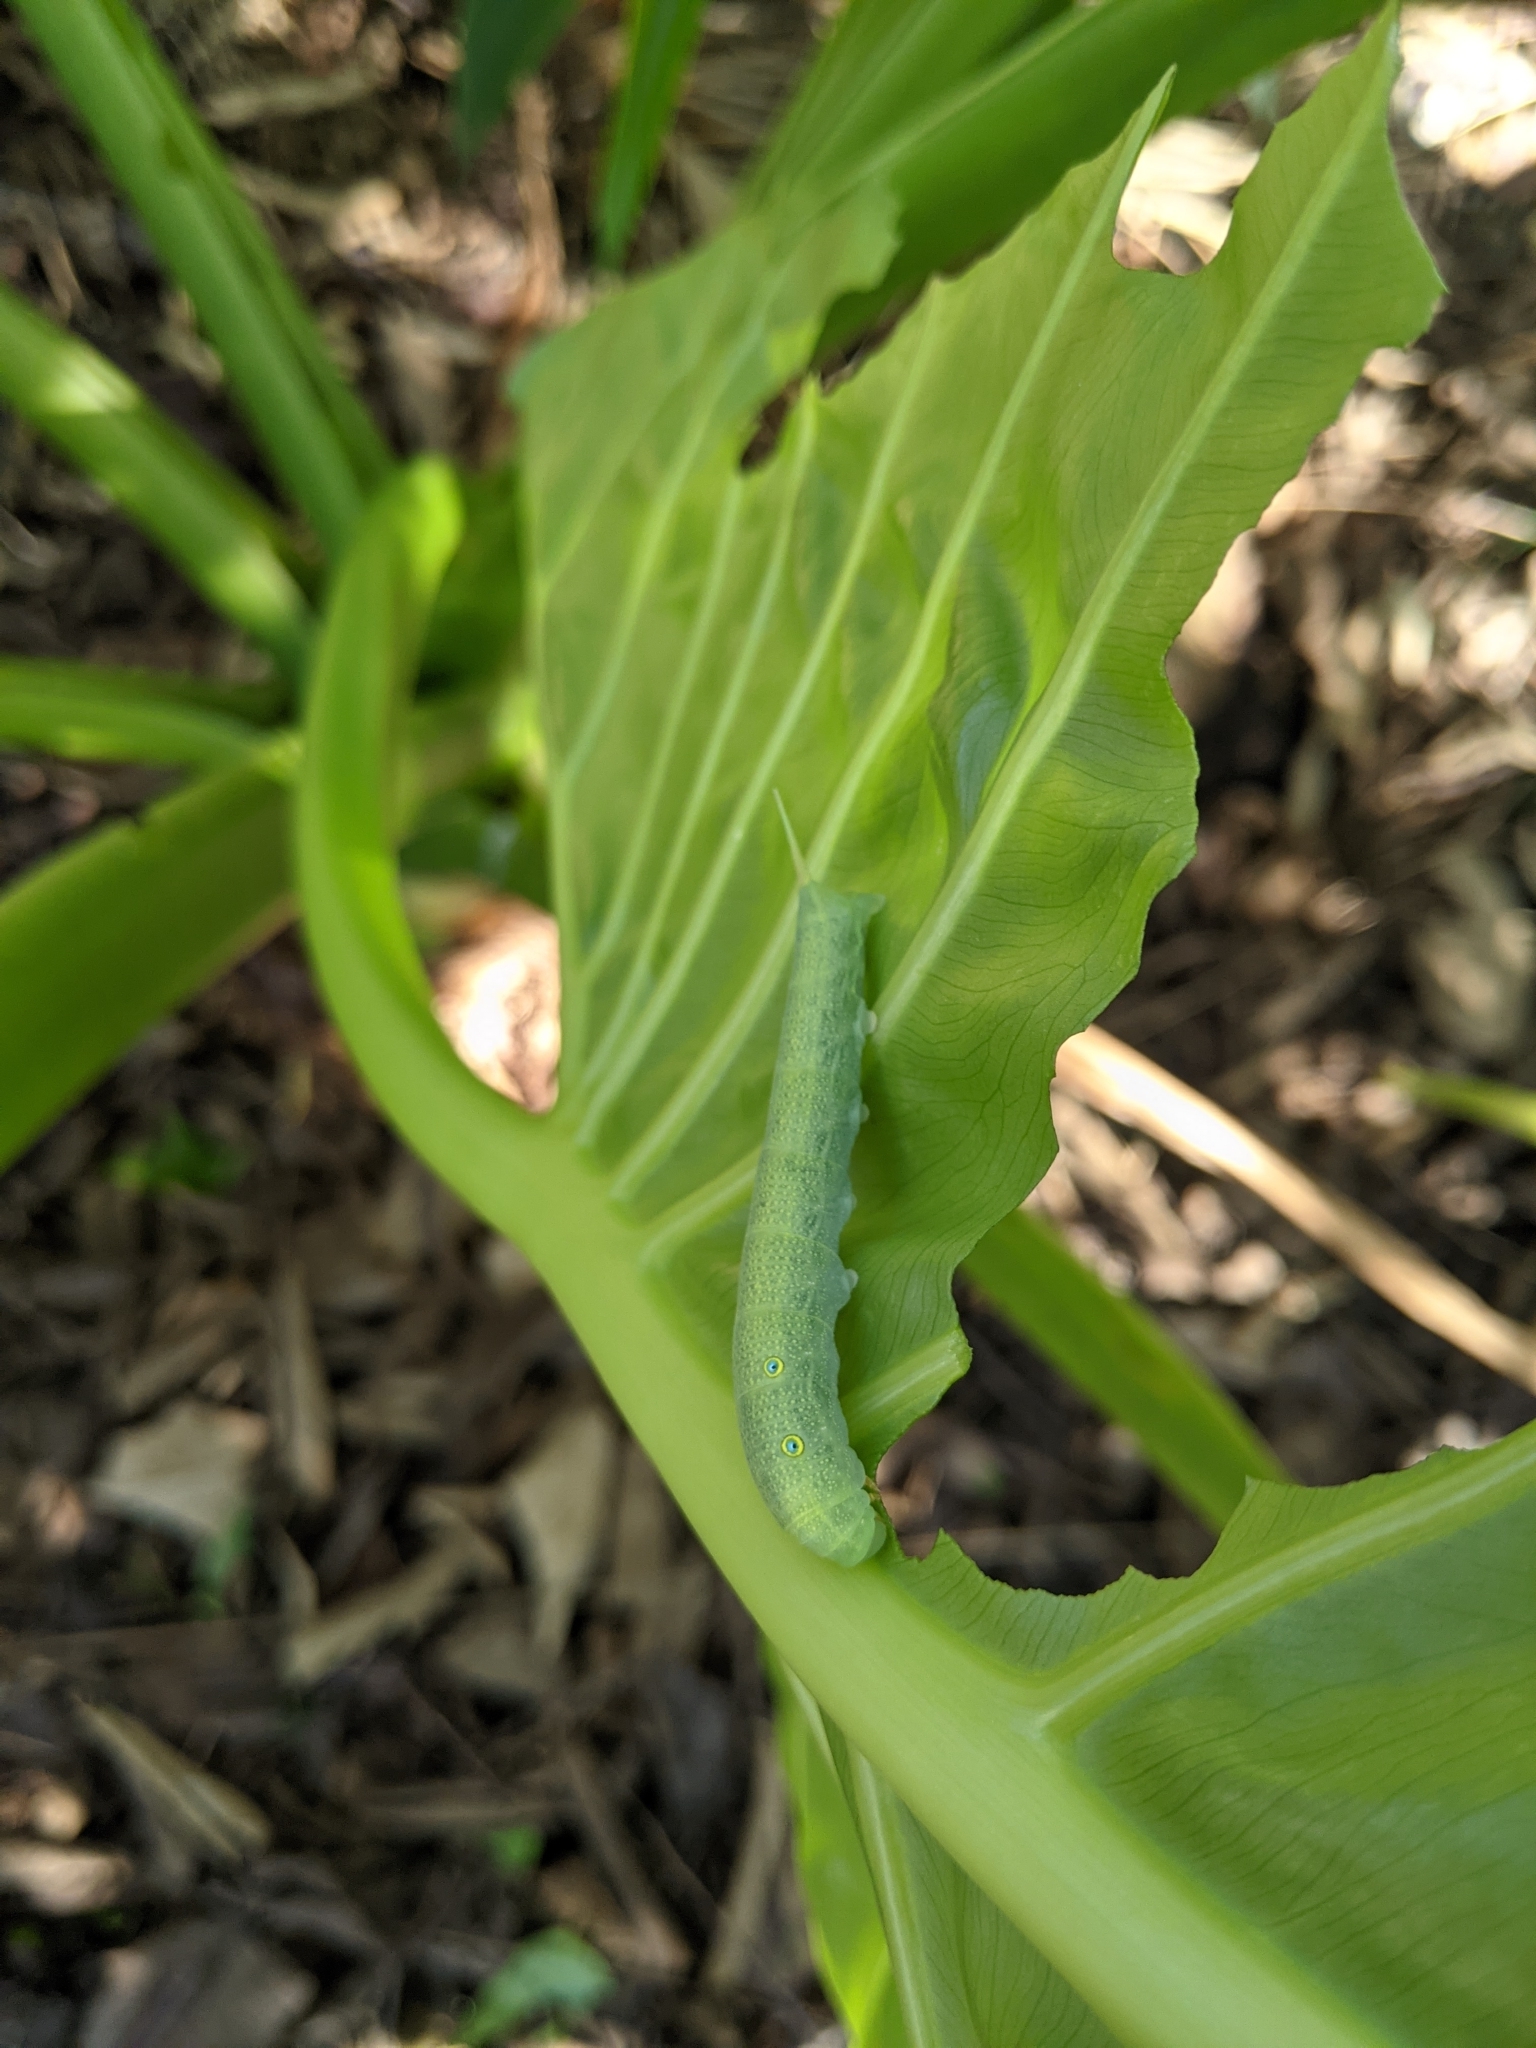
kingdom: Animalia
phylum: Arthropoda
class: Insecta
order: Lepidoptera
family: Sphingidae
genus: Theretra
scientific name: Theretra tryoni
